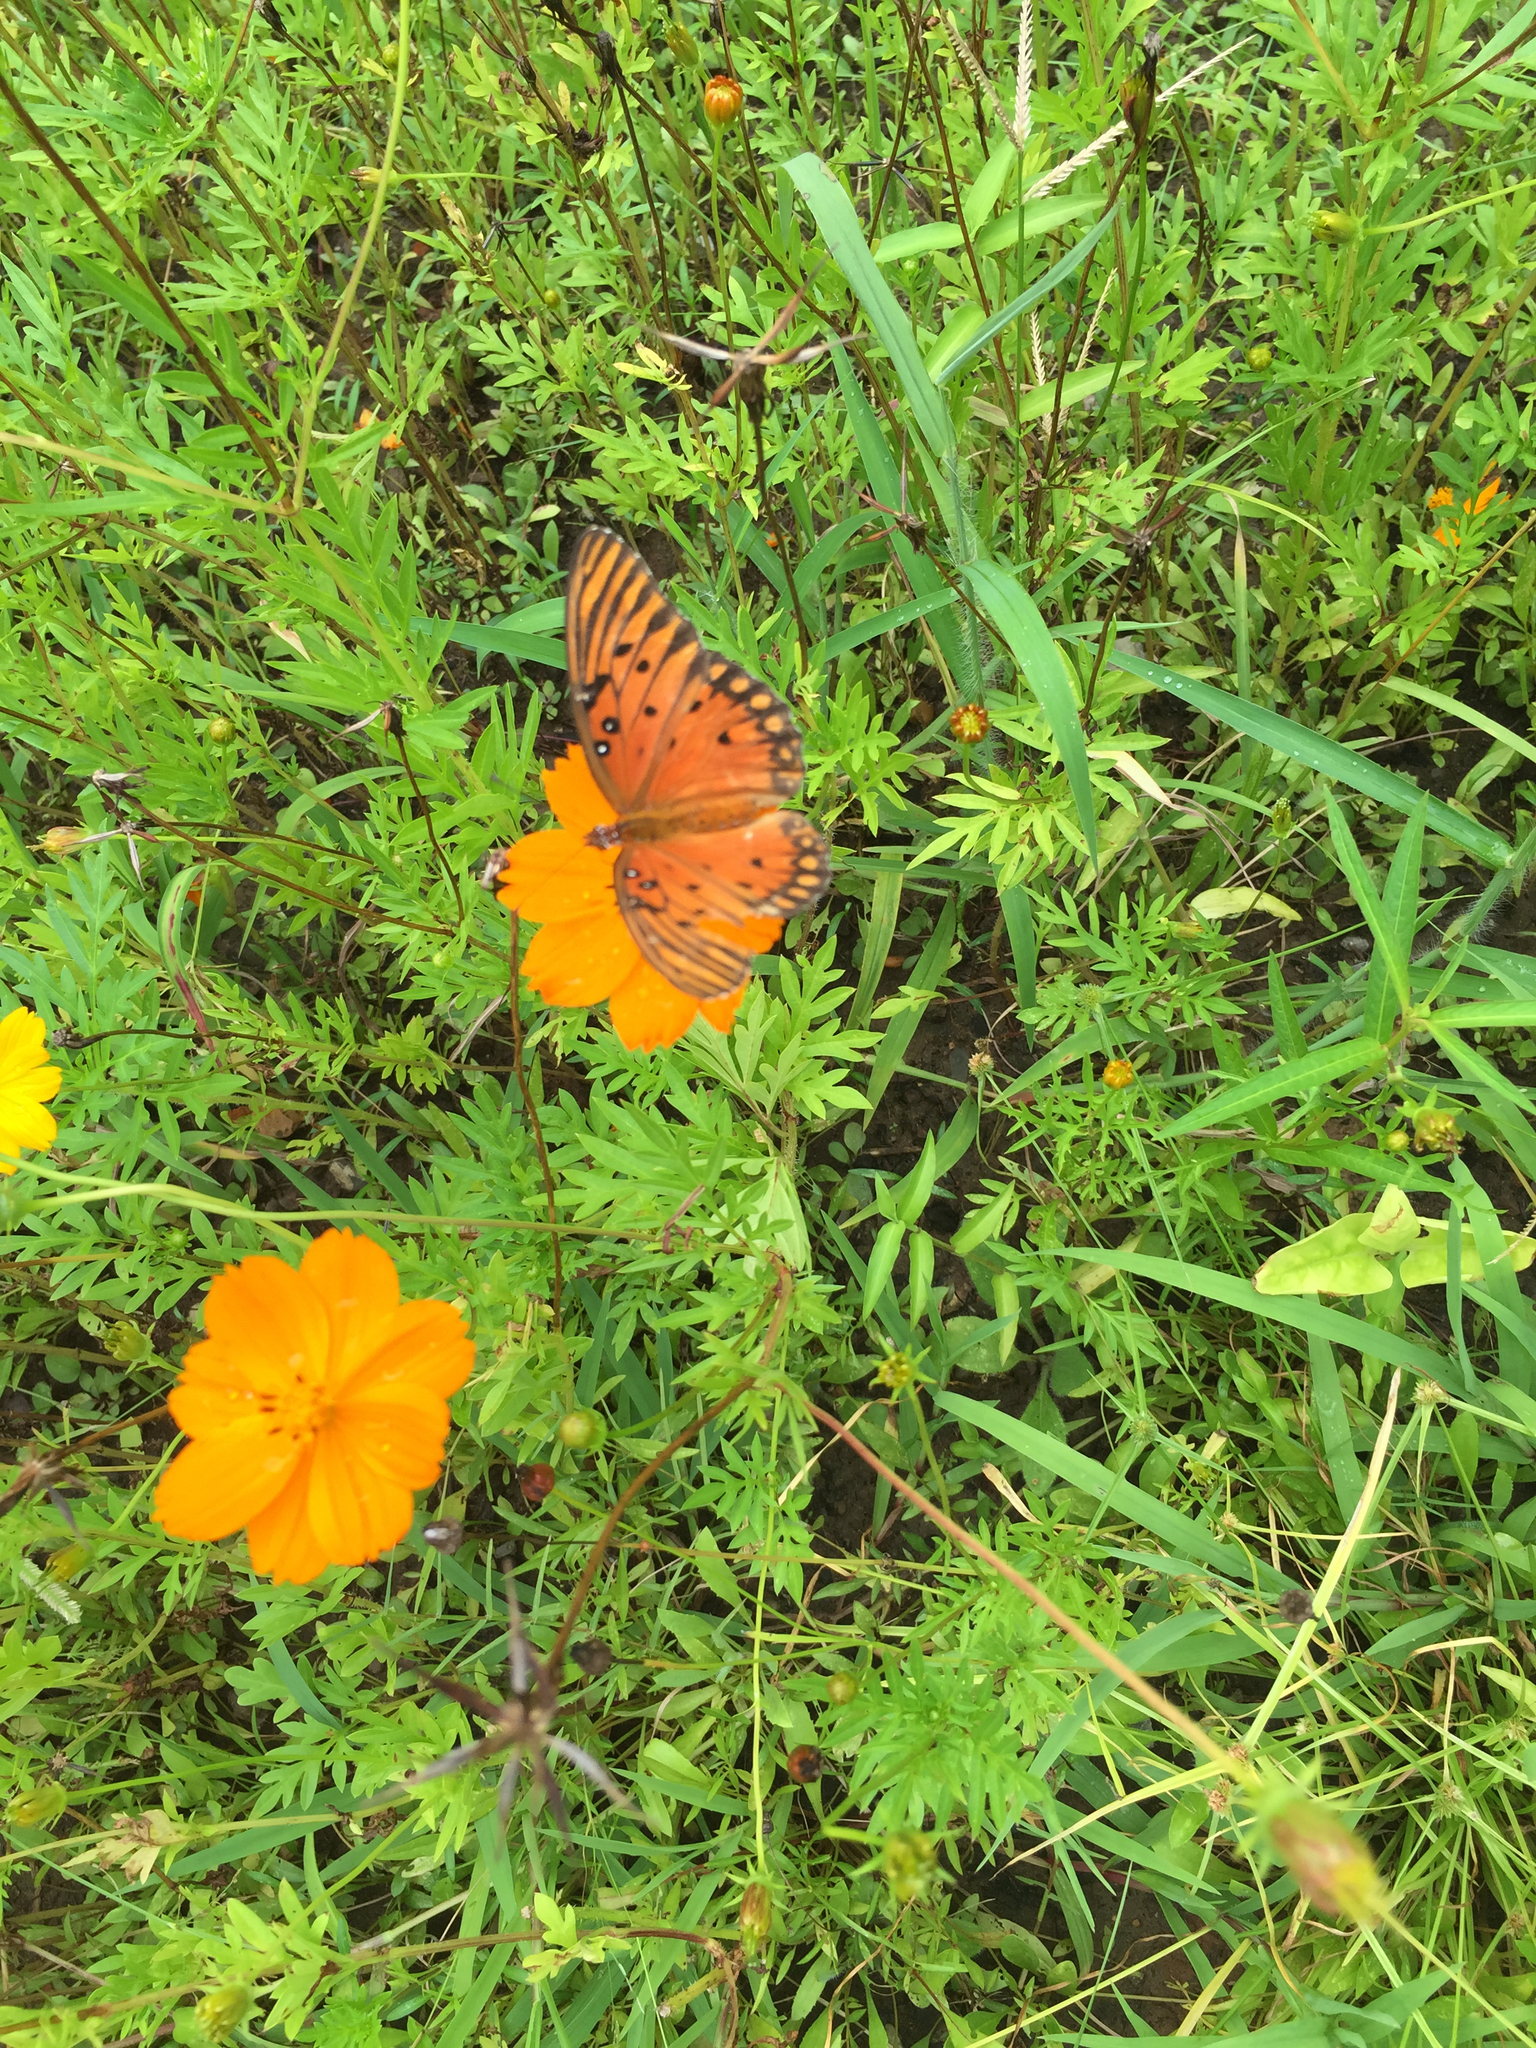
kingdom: Animalia
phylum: Arthropoda
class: Insecta
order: Lepidoptera
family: Nymphalidae
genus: Dione
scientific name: Dione vanillae
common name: Gulf fritillary
